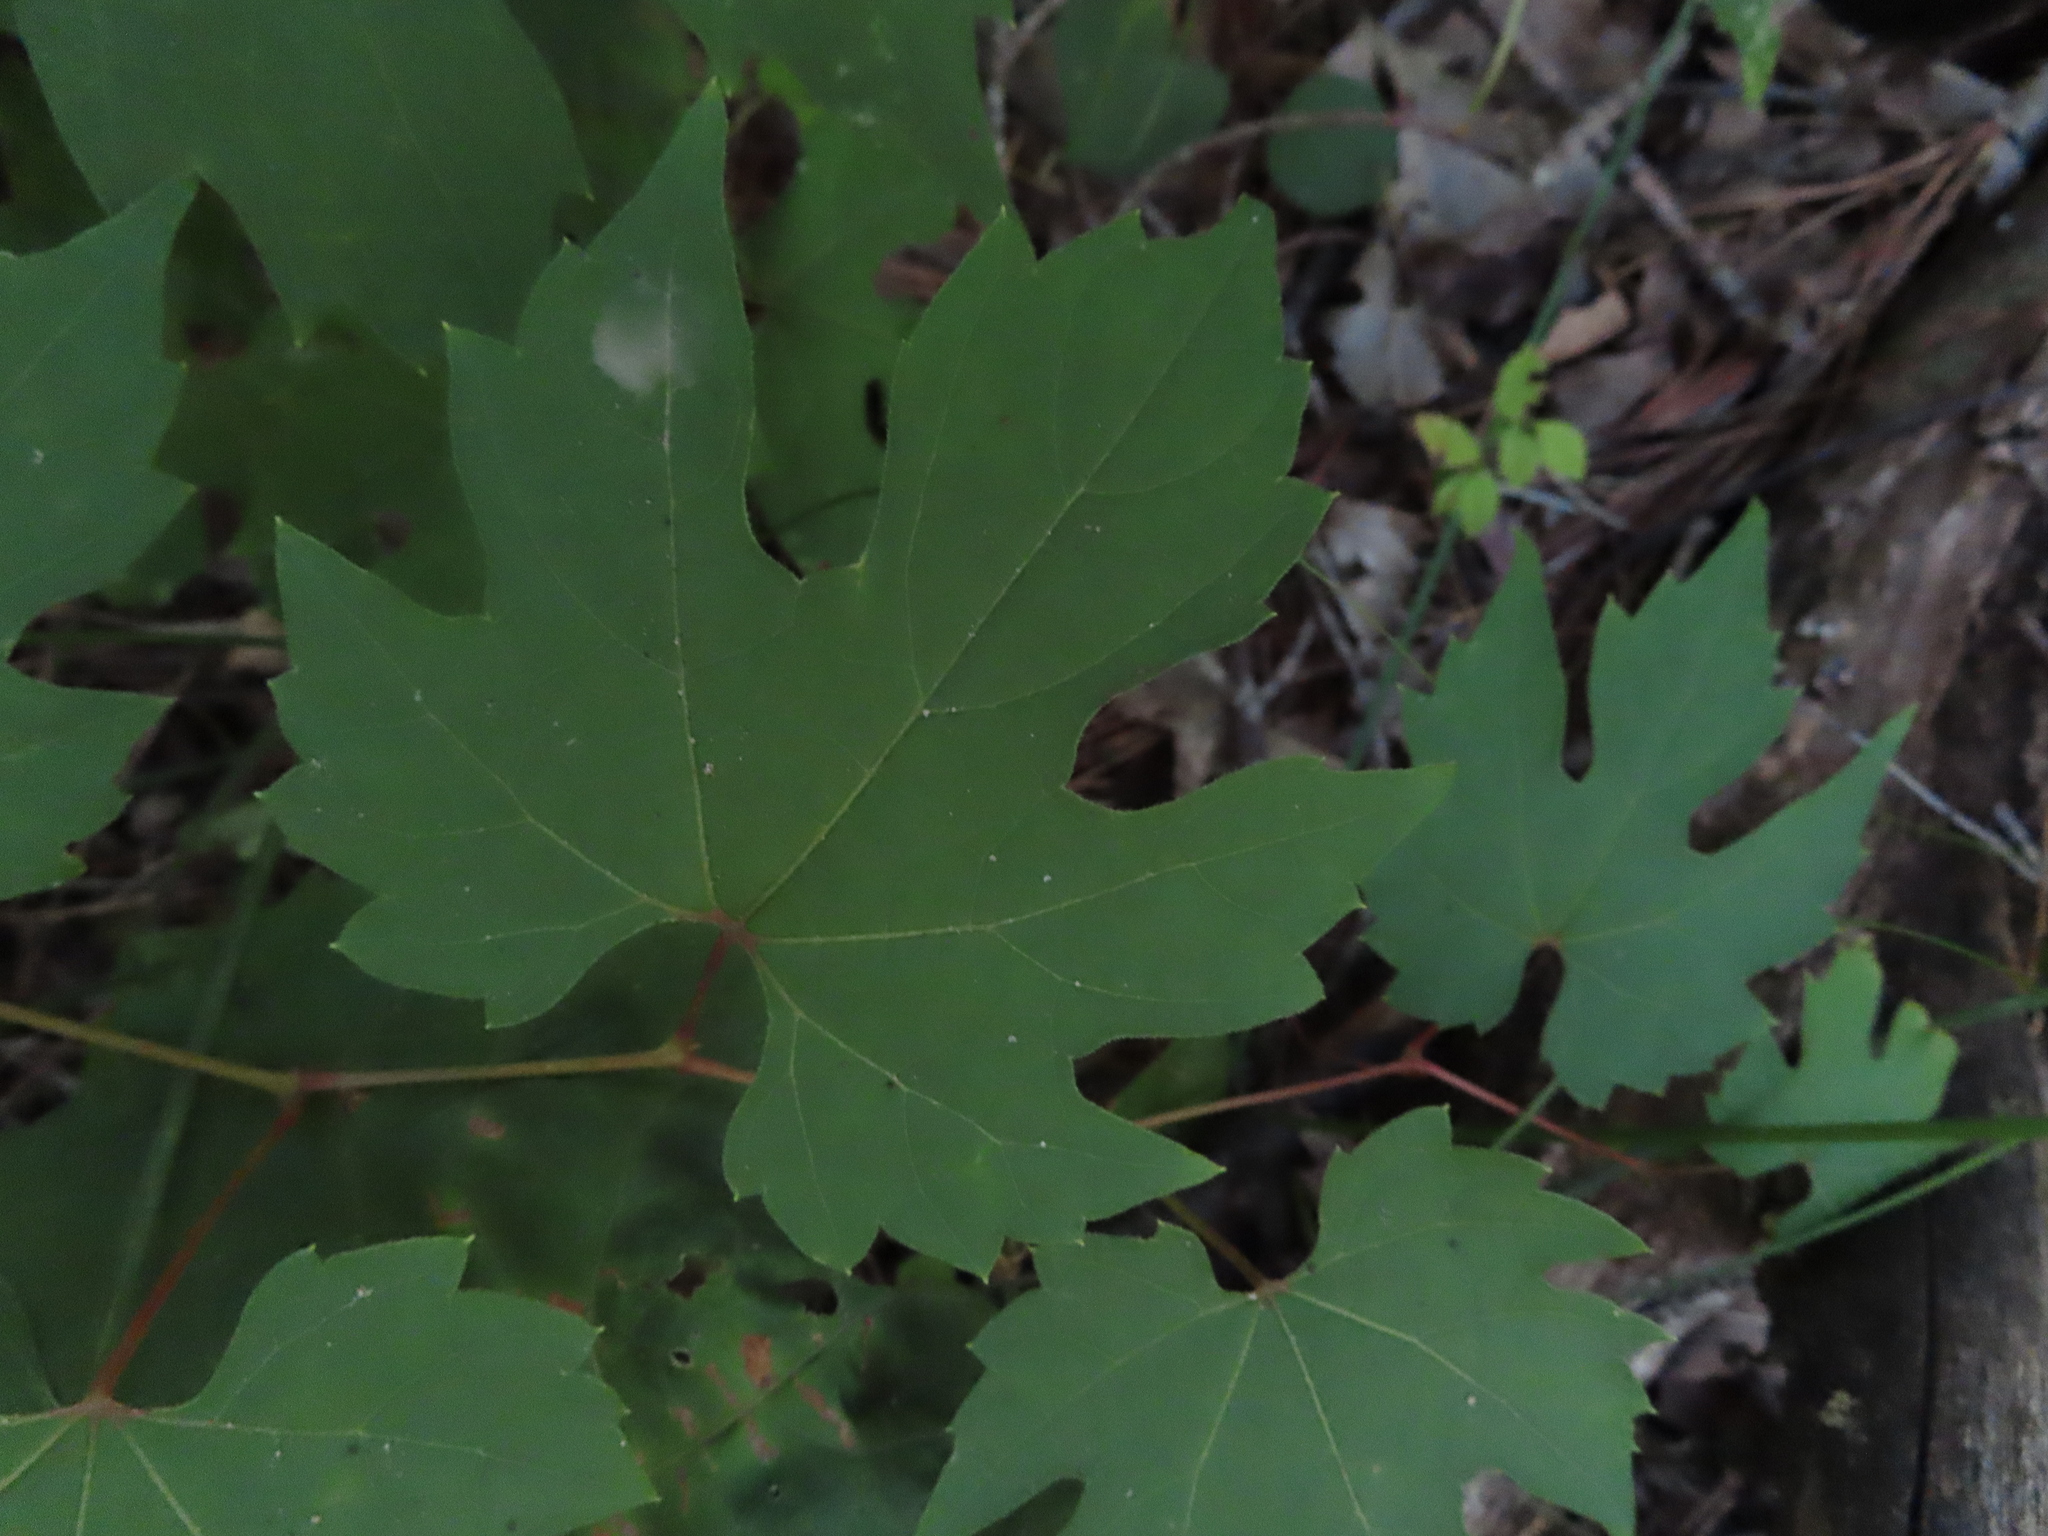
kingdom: Plantae
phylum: Tracheophyta
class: Magnoliopsida
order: Vitales
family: Vitaceae
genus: Vitis
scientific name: Vitis riparia
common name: Frost grape
